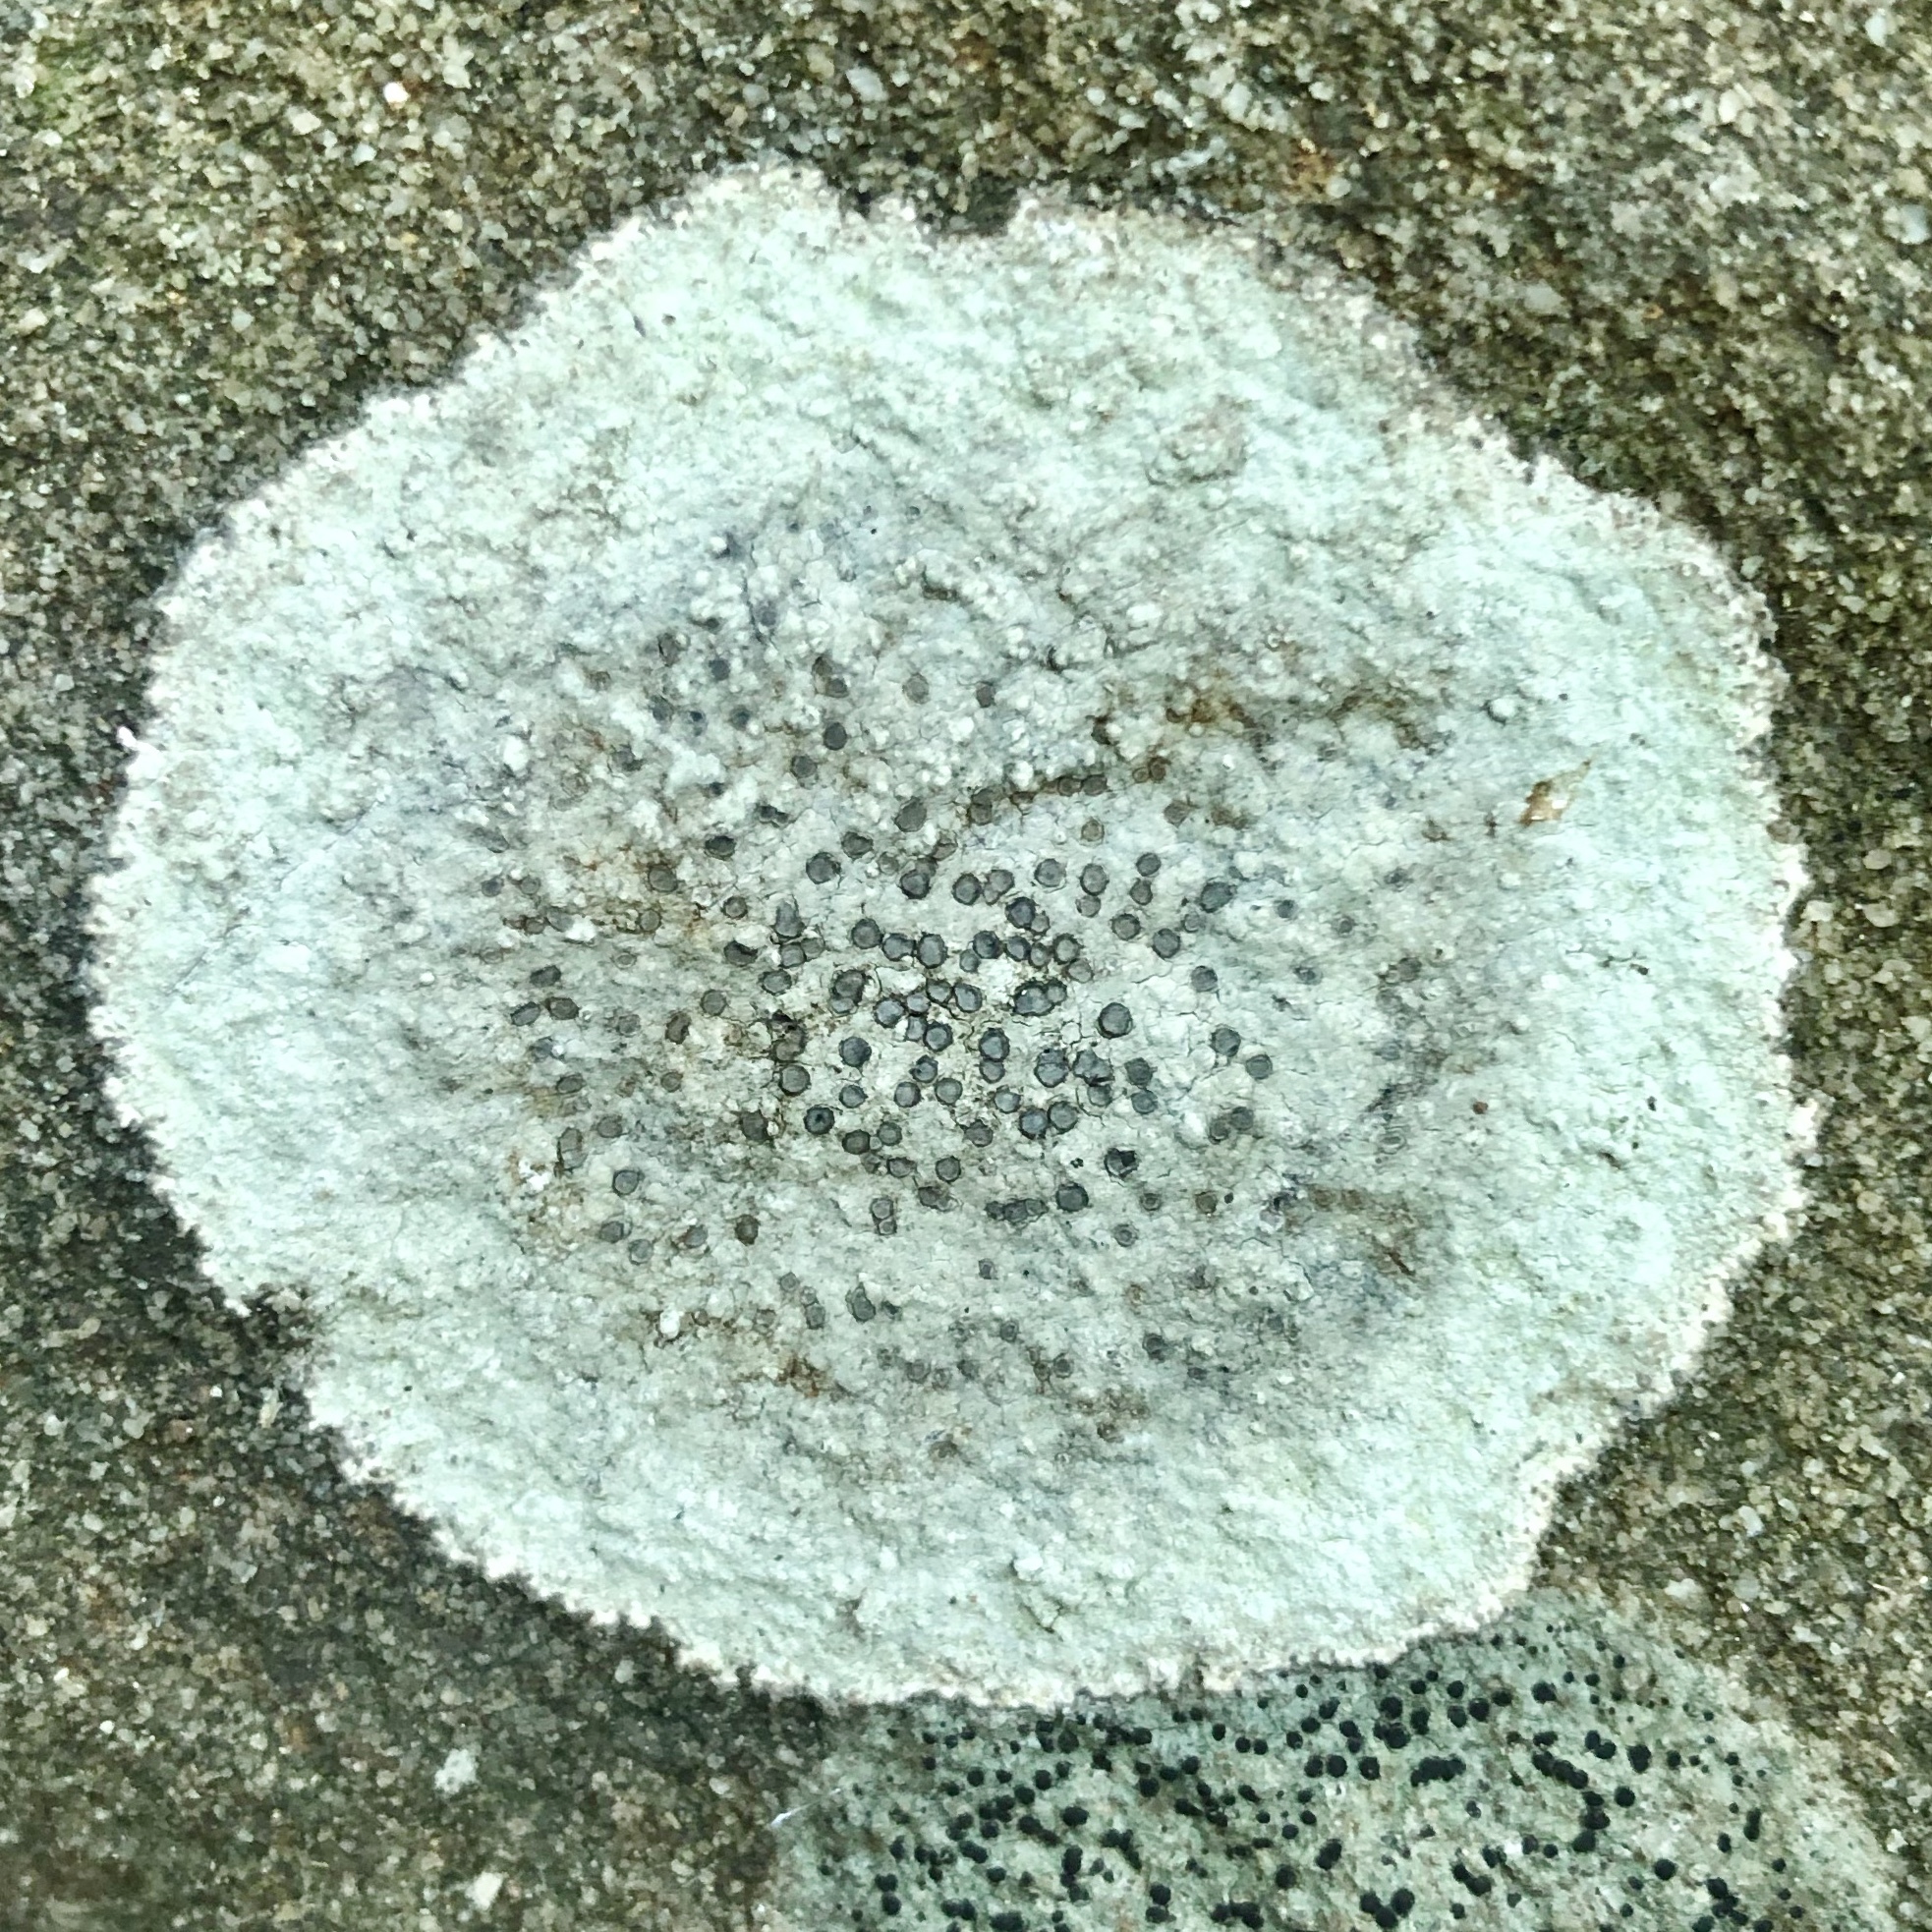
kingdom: Fungi
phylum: Ascomycota
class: Lecanoromycetes
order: Lecideales
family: Lecideaceae
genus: Porpidia
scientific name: Porpidia albocaerulescens
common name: Smokey-eyed boulder lichen
